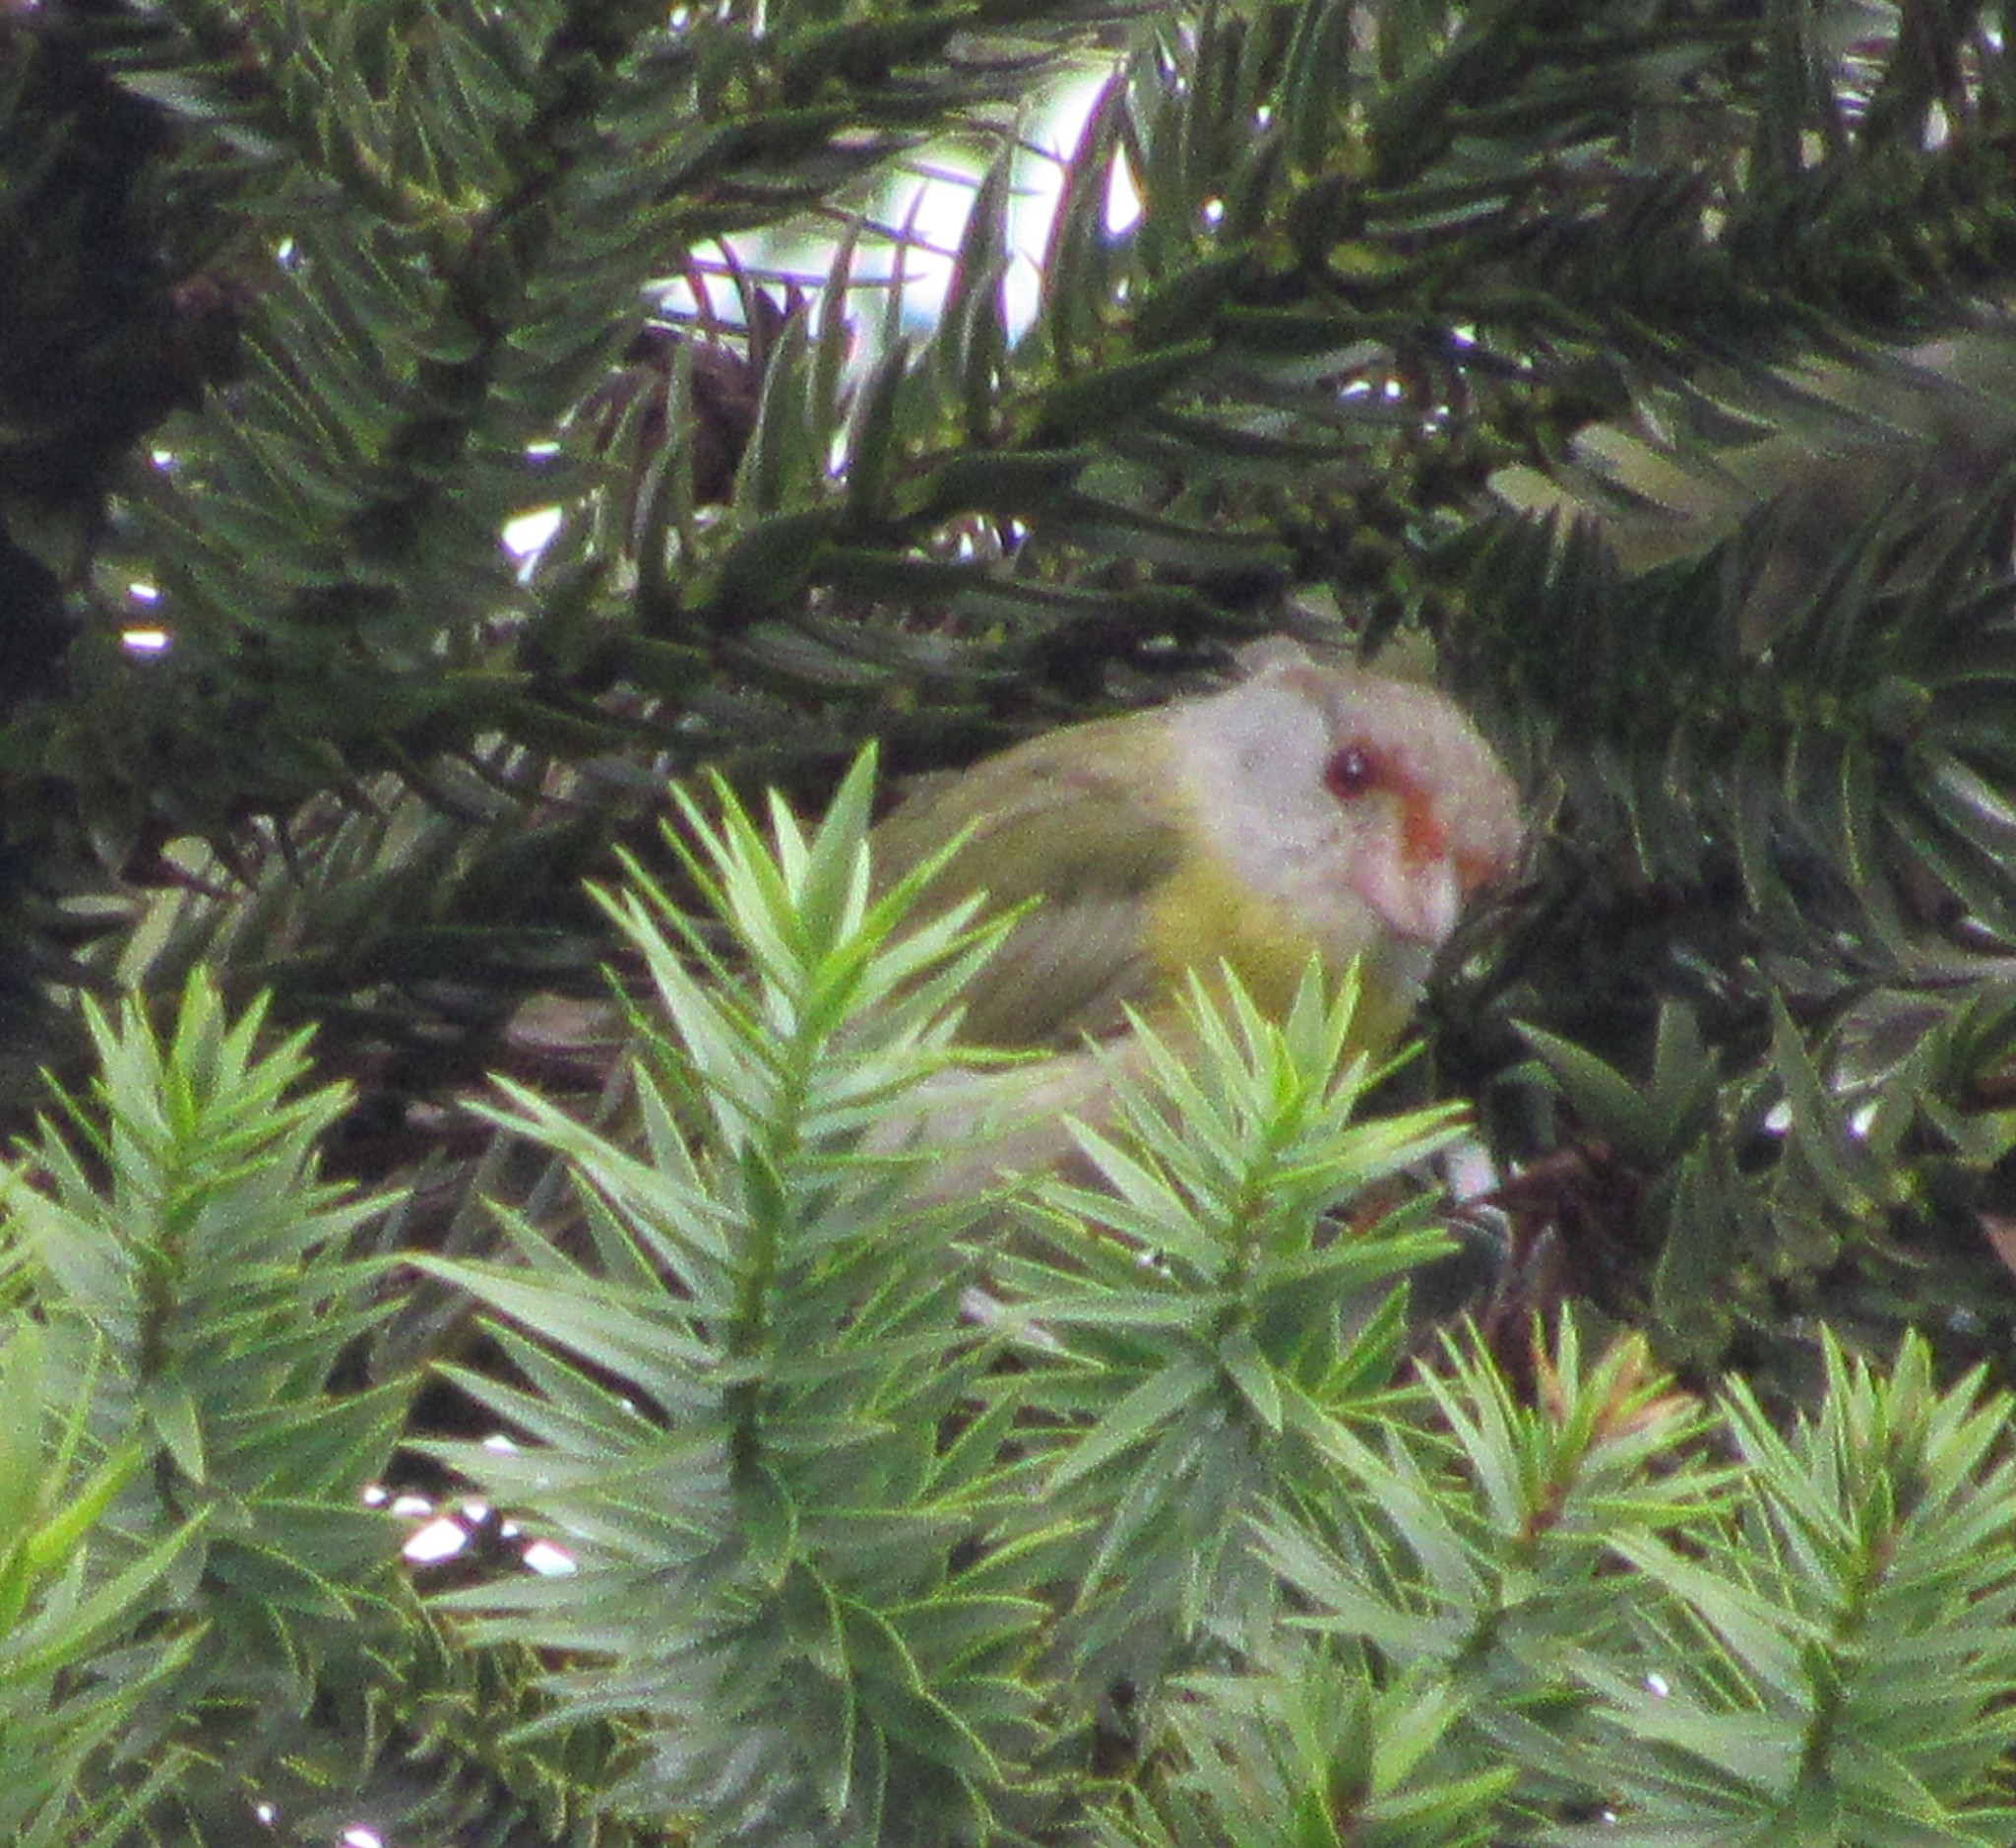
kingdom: Animalia
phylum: Chordata
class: Aves
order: Passeriformes
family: Vireonidae
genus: Cyclarhis
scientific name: Cyclarhis gujanensis
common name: Rufous-browed peppershrike
